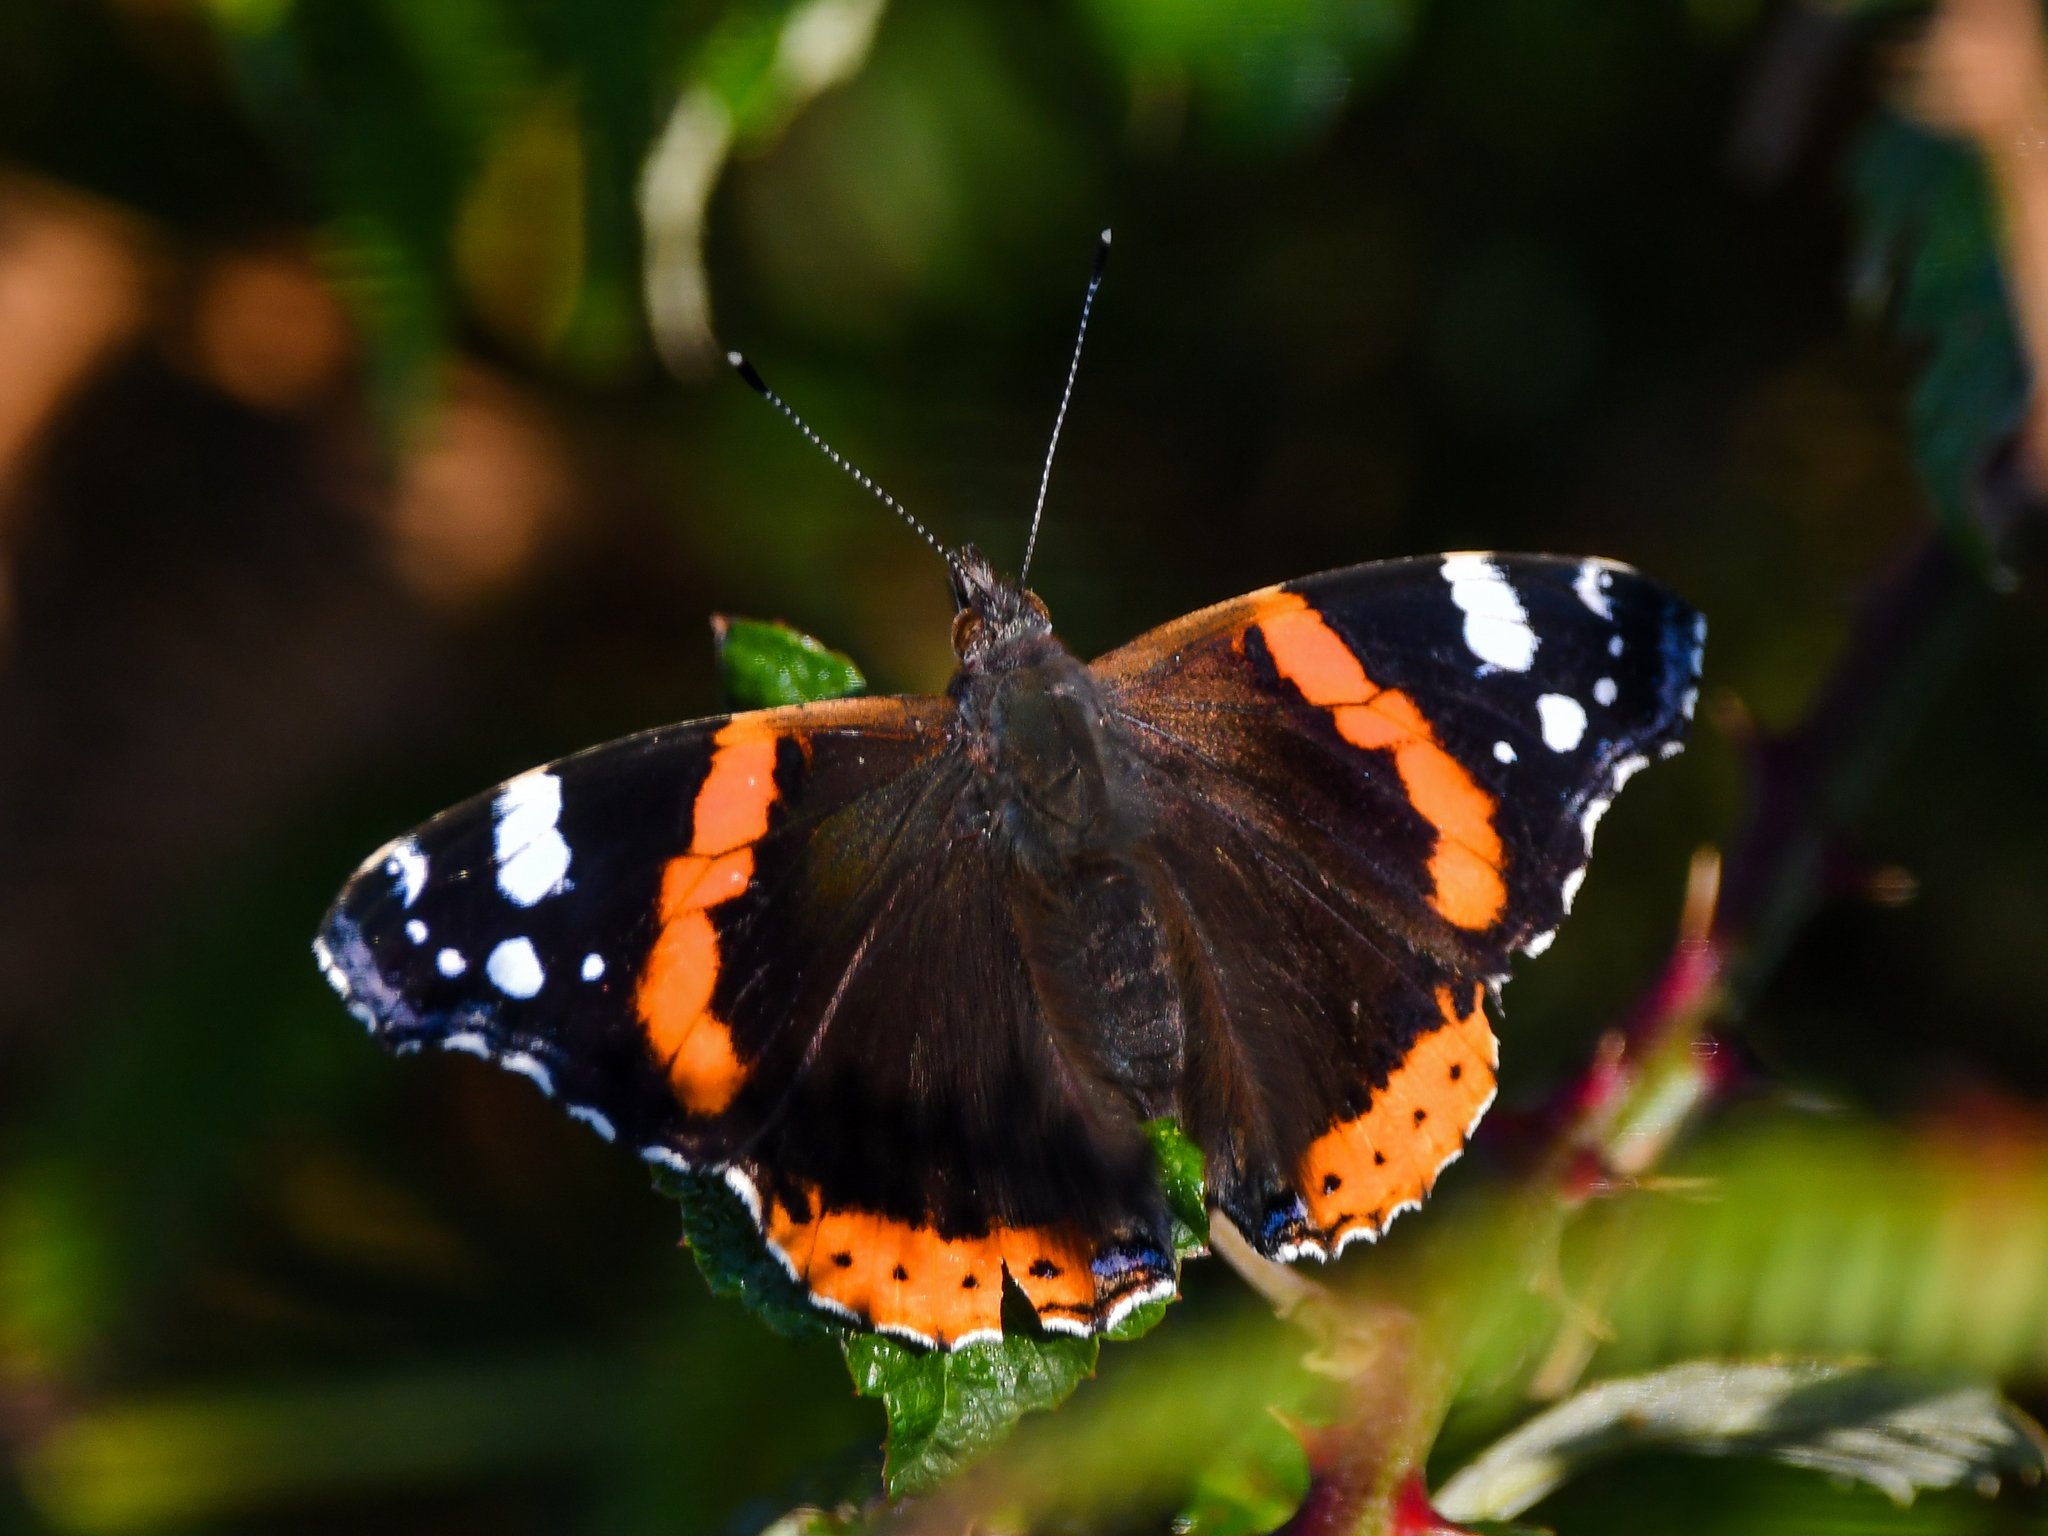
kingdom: Animalia
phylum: Arthropoda
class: Insecta
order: Lepidoptera
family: Nymphalidae
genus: Vanessa
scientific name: Vanessa atalanta
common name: Red admiral
